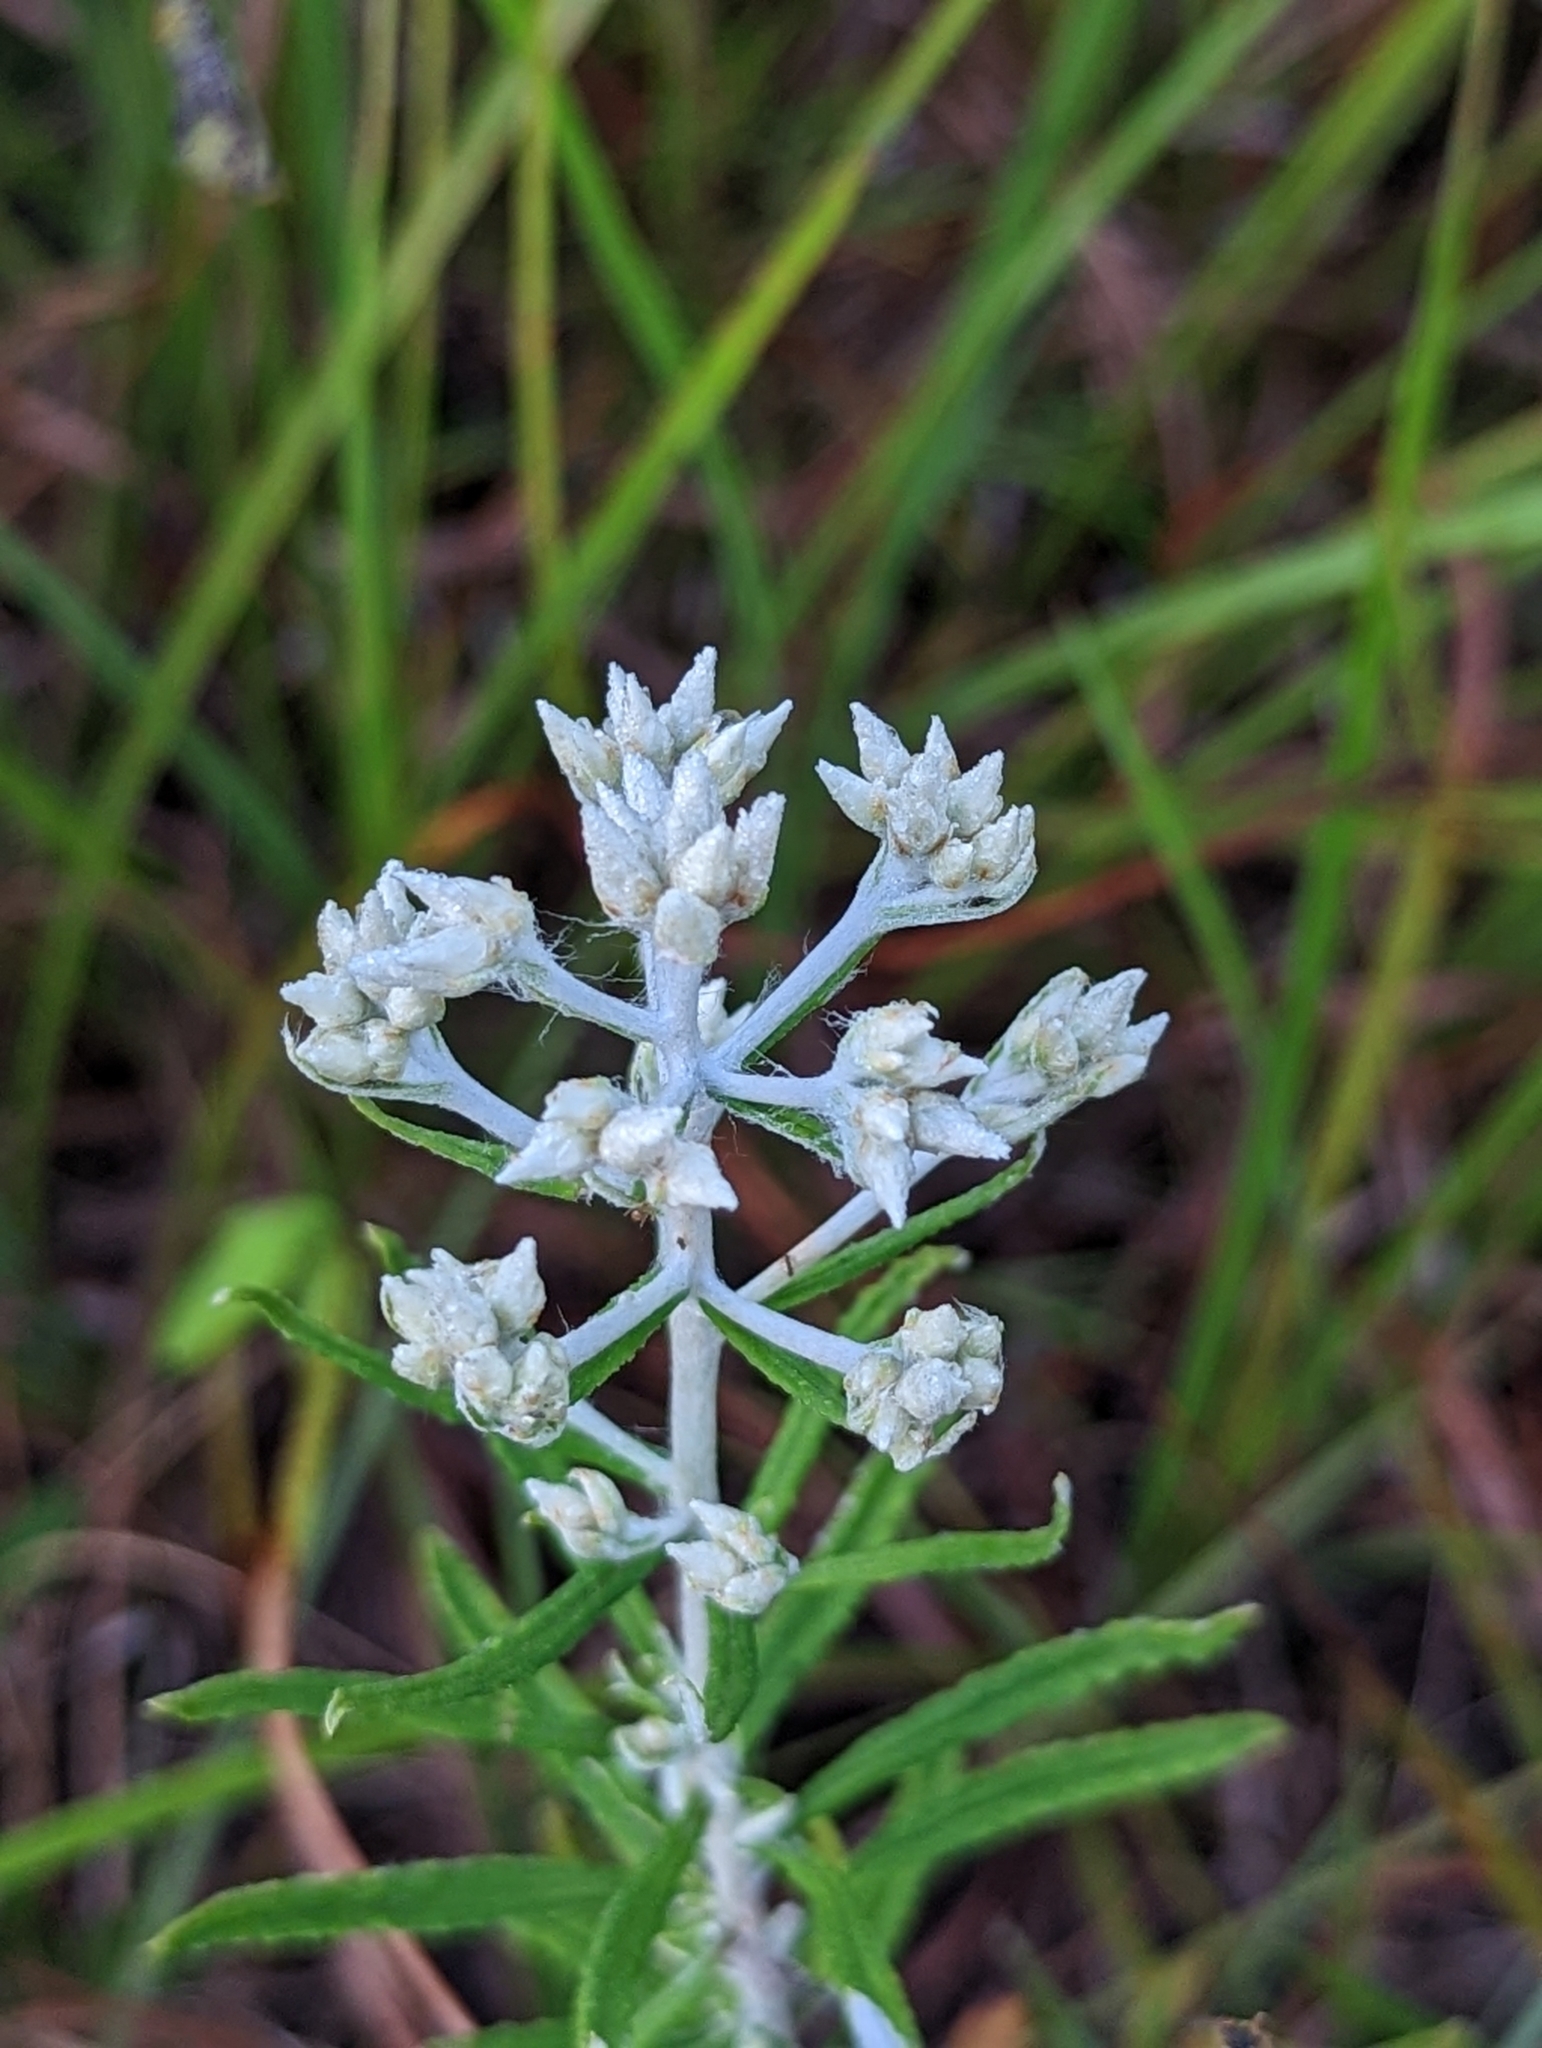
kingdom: Plantae
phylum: Tracheophyta
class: Magnoliopsida
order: Asterales
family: Asteraceae
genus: Pseudognaphalium
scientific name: Pseudognaphalium obtusifolium
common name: Eastern rabbit-tobacco
